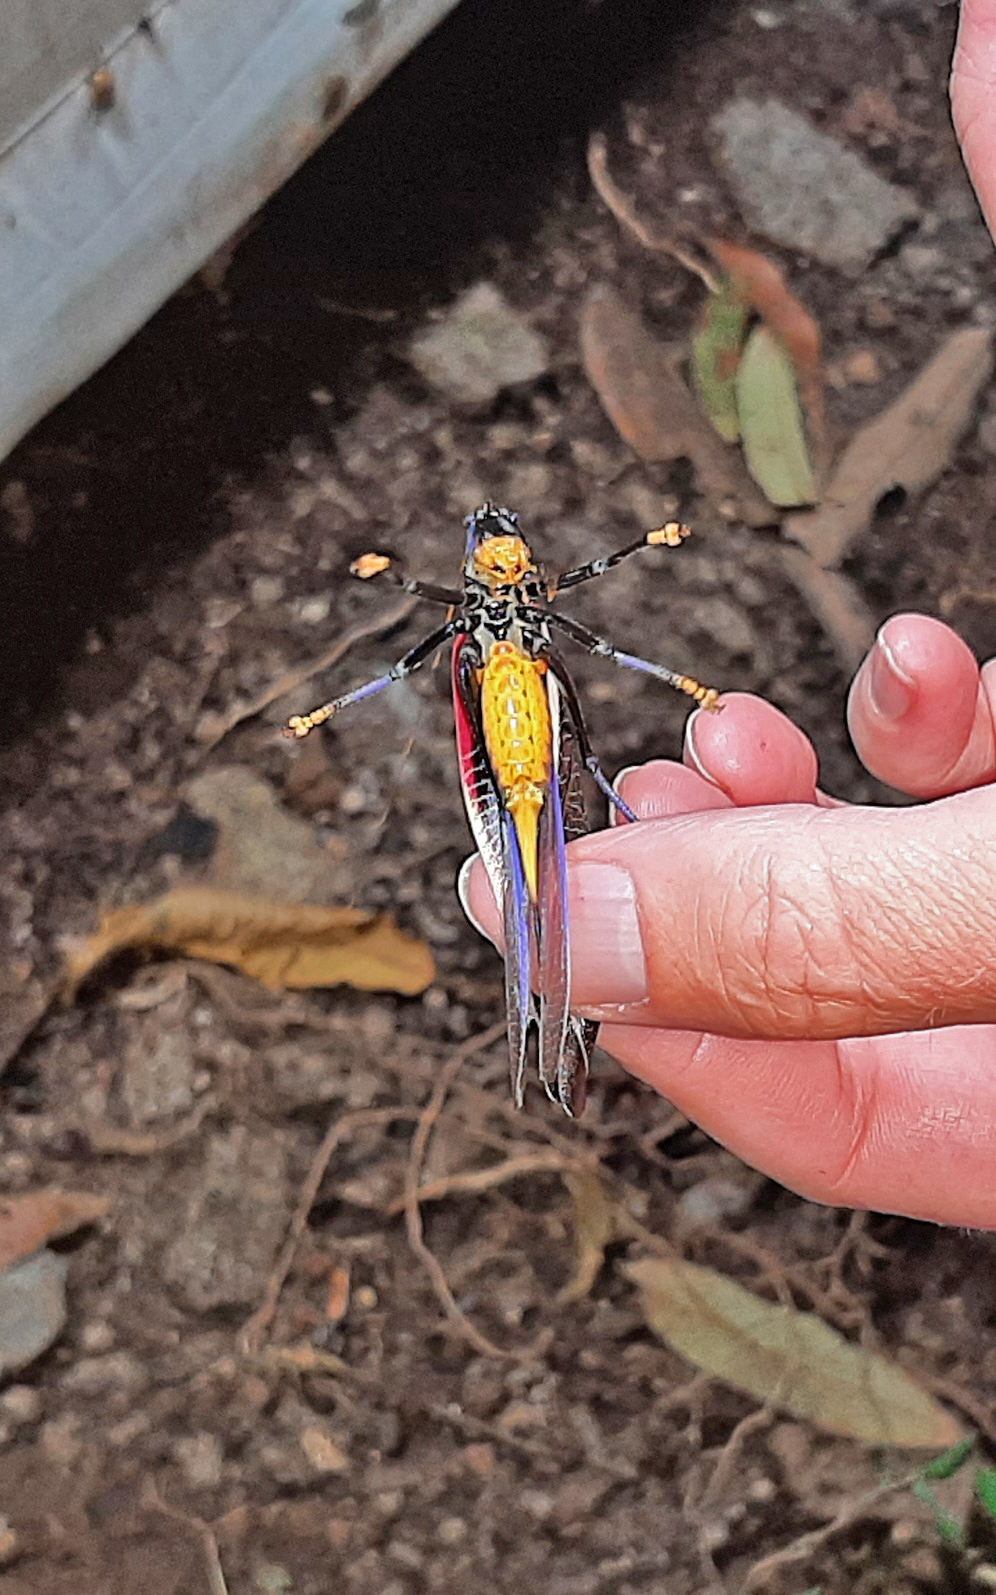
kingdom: Animalia
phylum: Arthropoda
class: Insecta
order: Orthoptera
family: Tettigoniidae
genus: Moncheca
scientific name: Moncheca elegans
